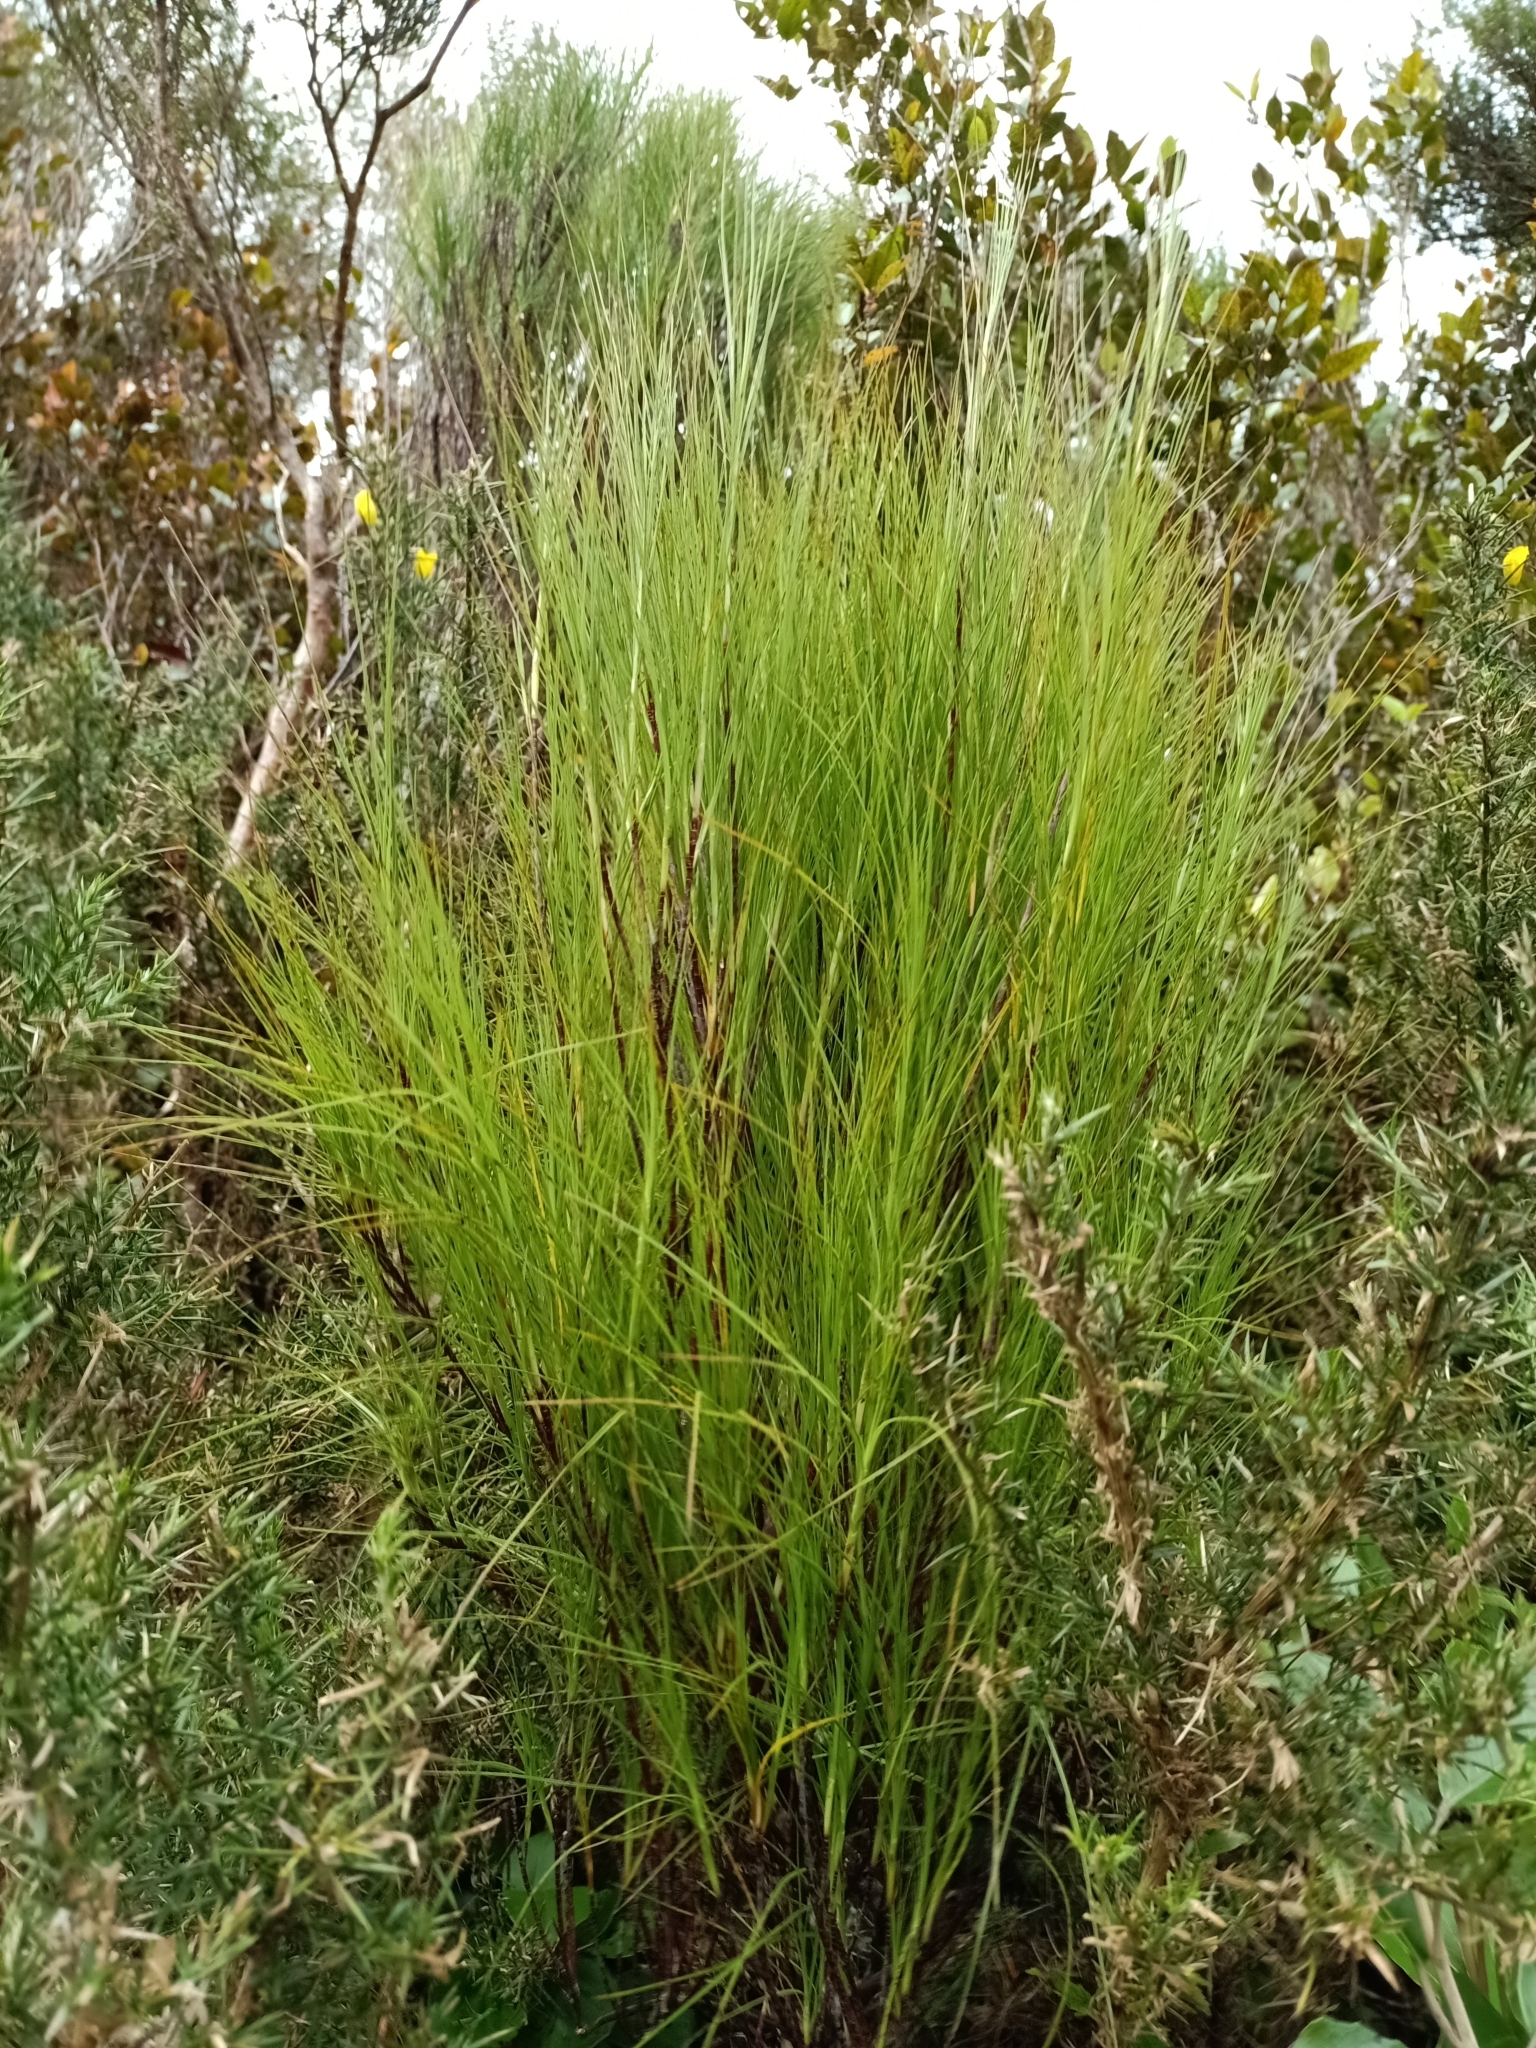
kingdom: Plantae
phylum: Tracheophyta
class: Magnoliopsida
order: Ericales
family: Ericaceae
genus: Dracophyllum
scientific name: Dracophyllum filifolium
